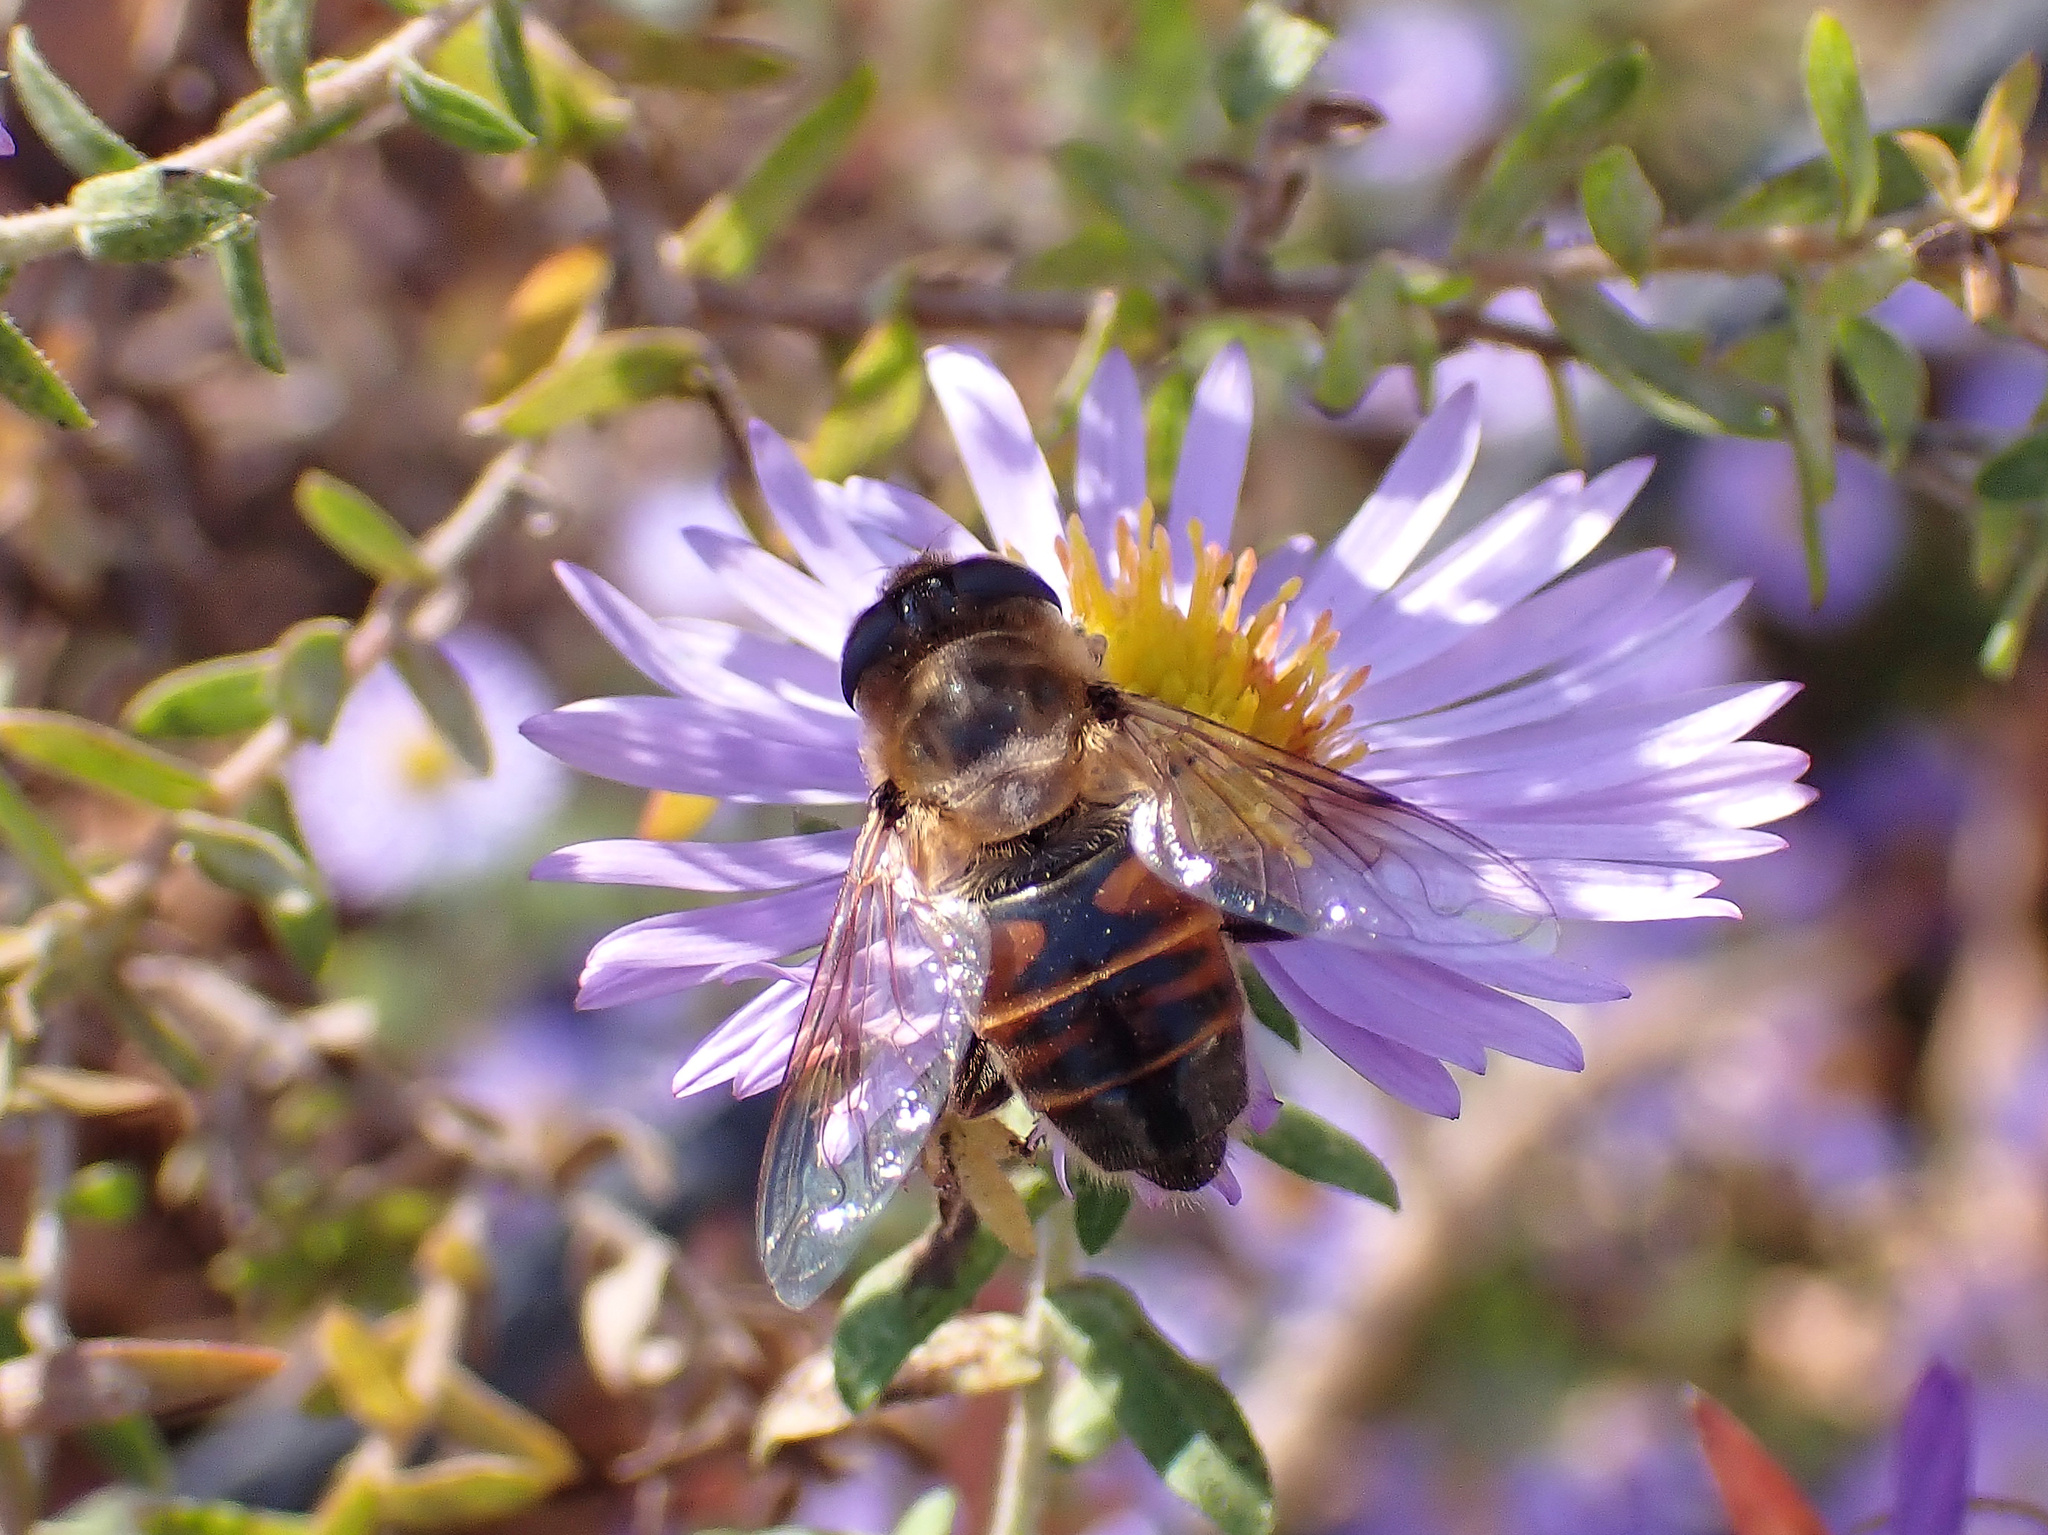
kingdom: Animalia
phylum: Arthropoda
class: Insecta
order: Diptera
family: Syrphidae
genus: Eristalis
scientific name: Eristalis tenax
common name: Drone fly
